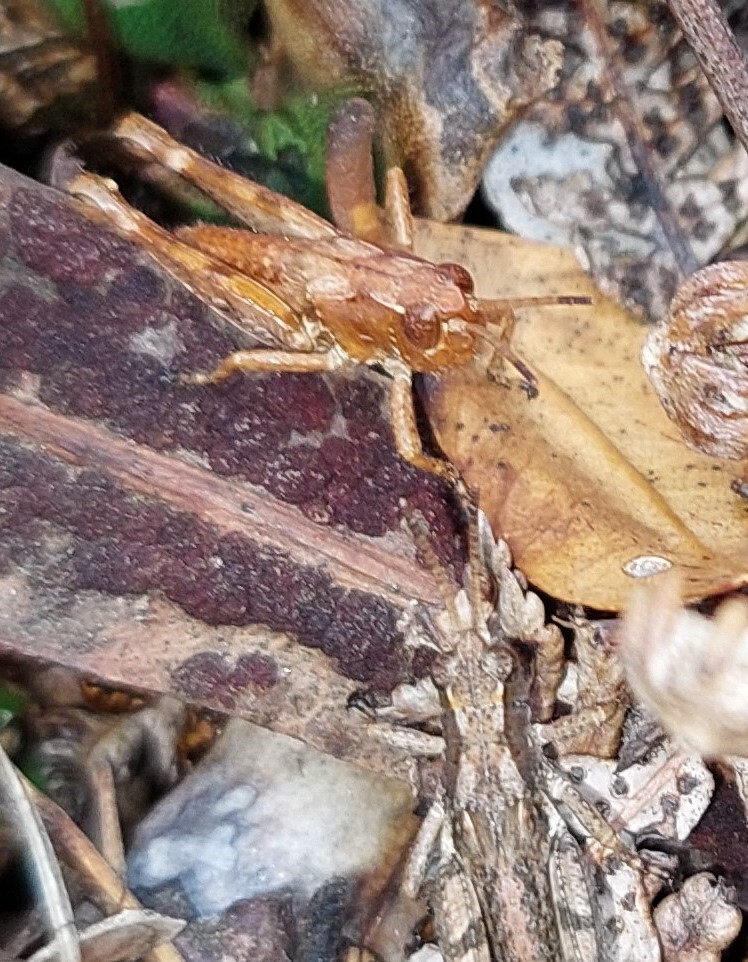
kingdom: Animalia
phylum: Arthropoda
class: Insecta
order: Orthoptera
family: Acrididae
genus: Phaulacridium
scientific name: Phaulacridium marginale
